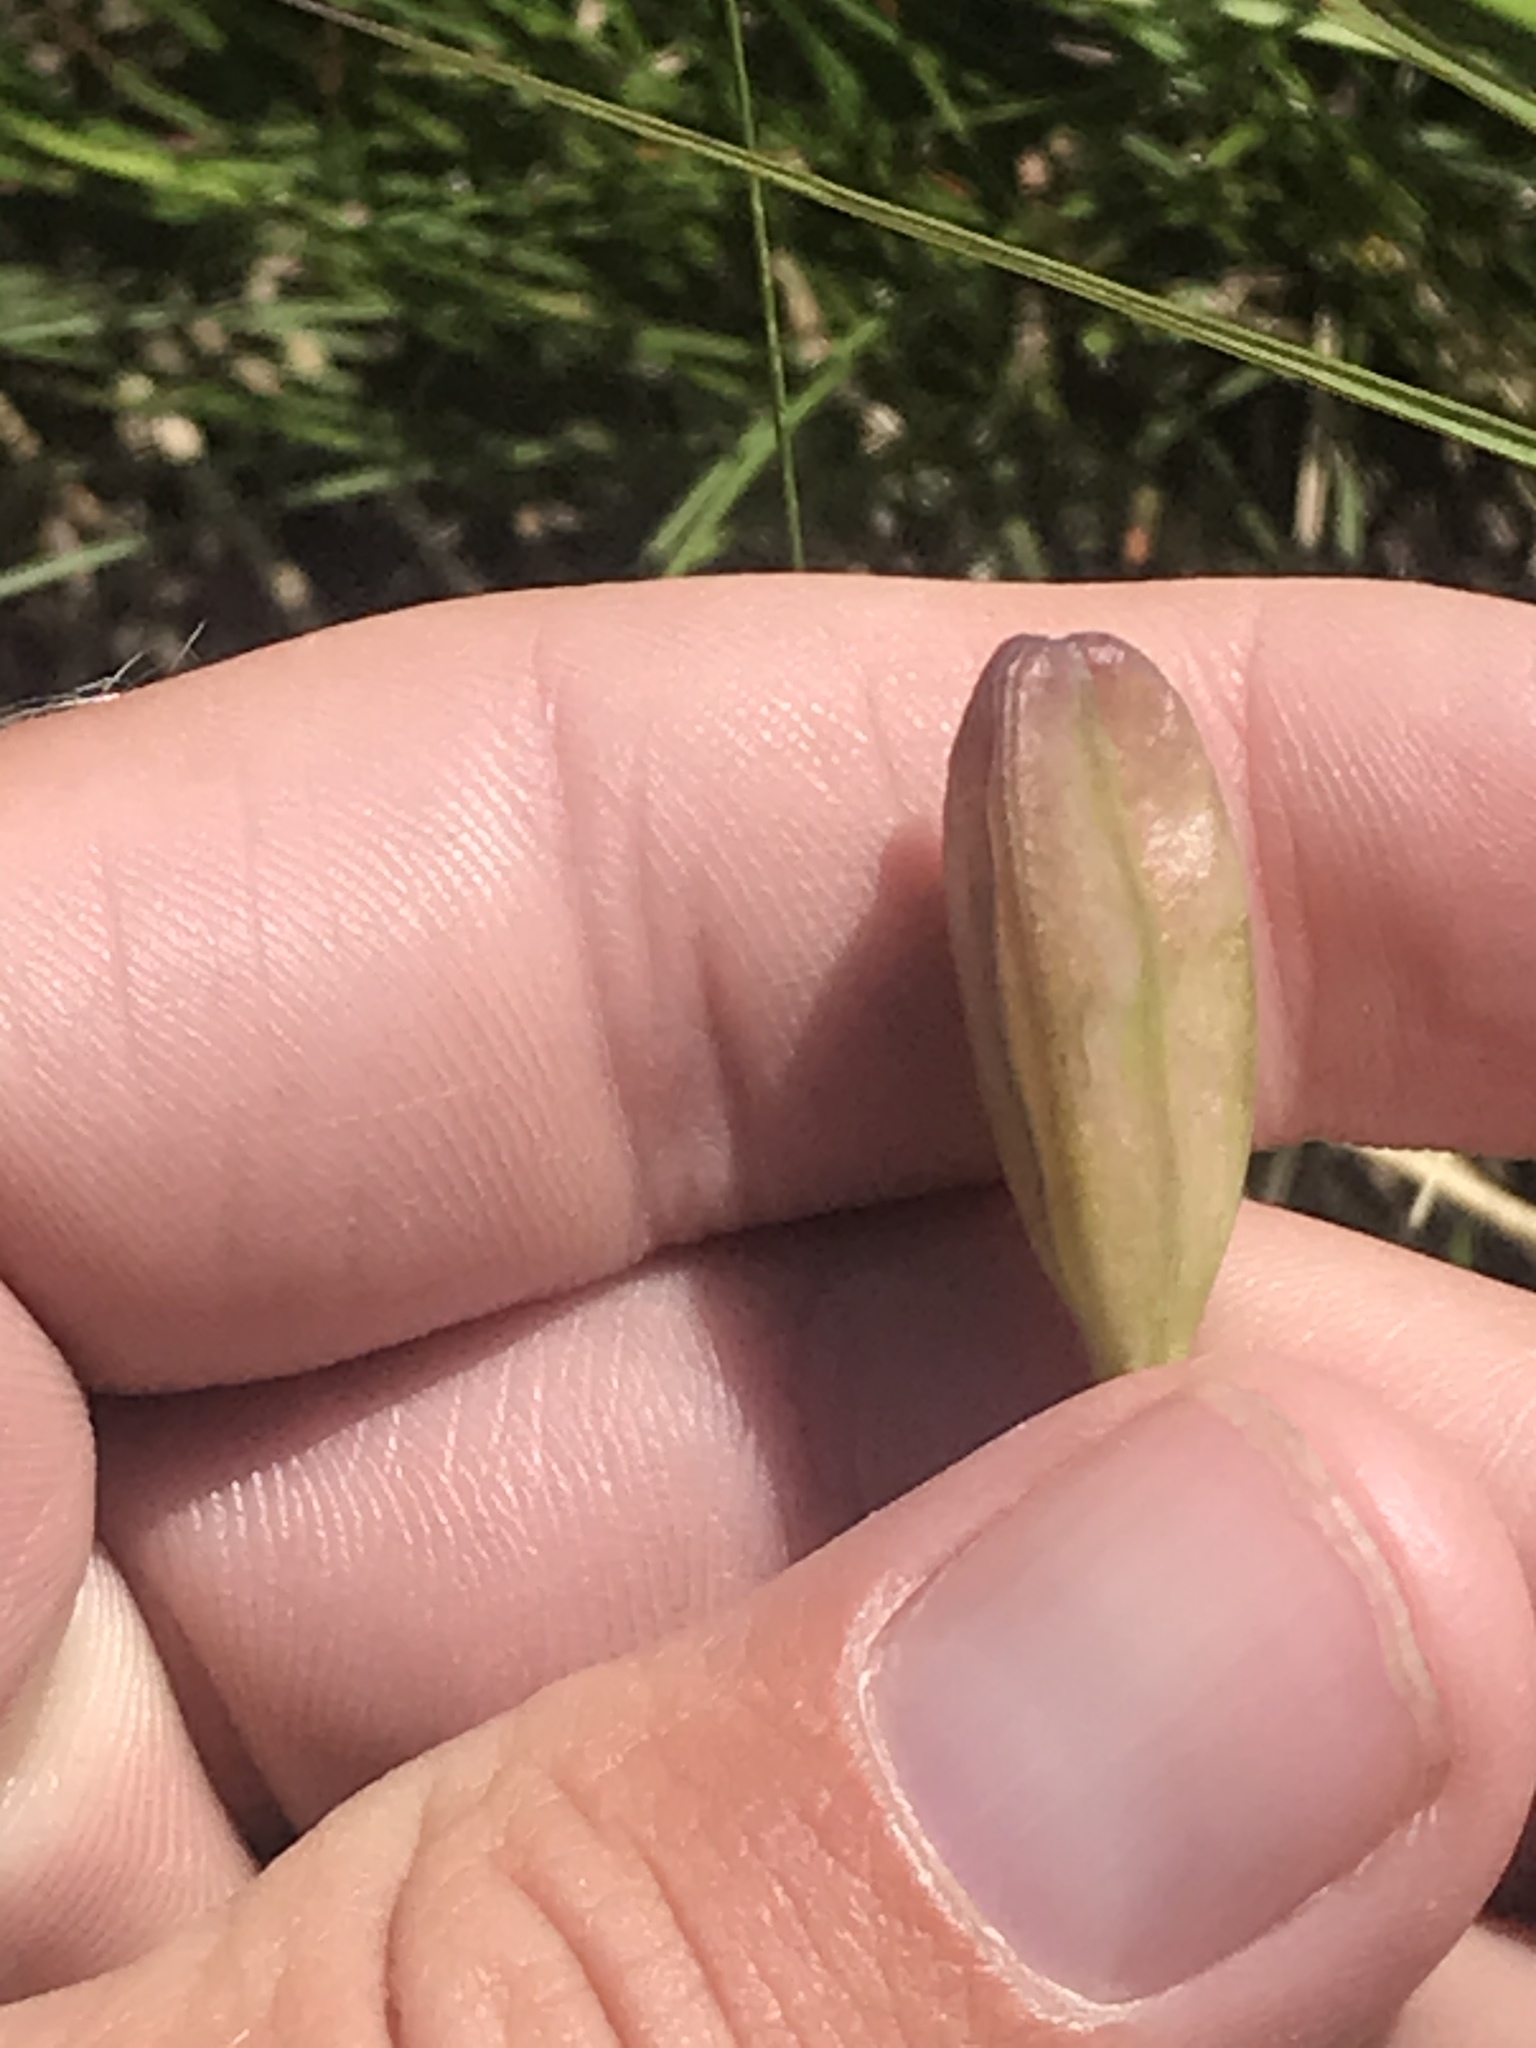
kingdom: Plantae
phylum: Tracheophyta
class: Liliopsida
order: Liliales
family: Liliaceae
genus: Erythronium
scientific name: Erythronium grandiflorum
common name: Avalanche-lily
